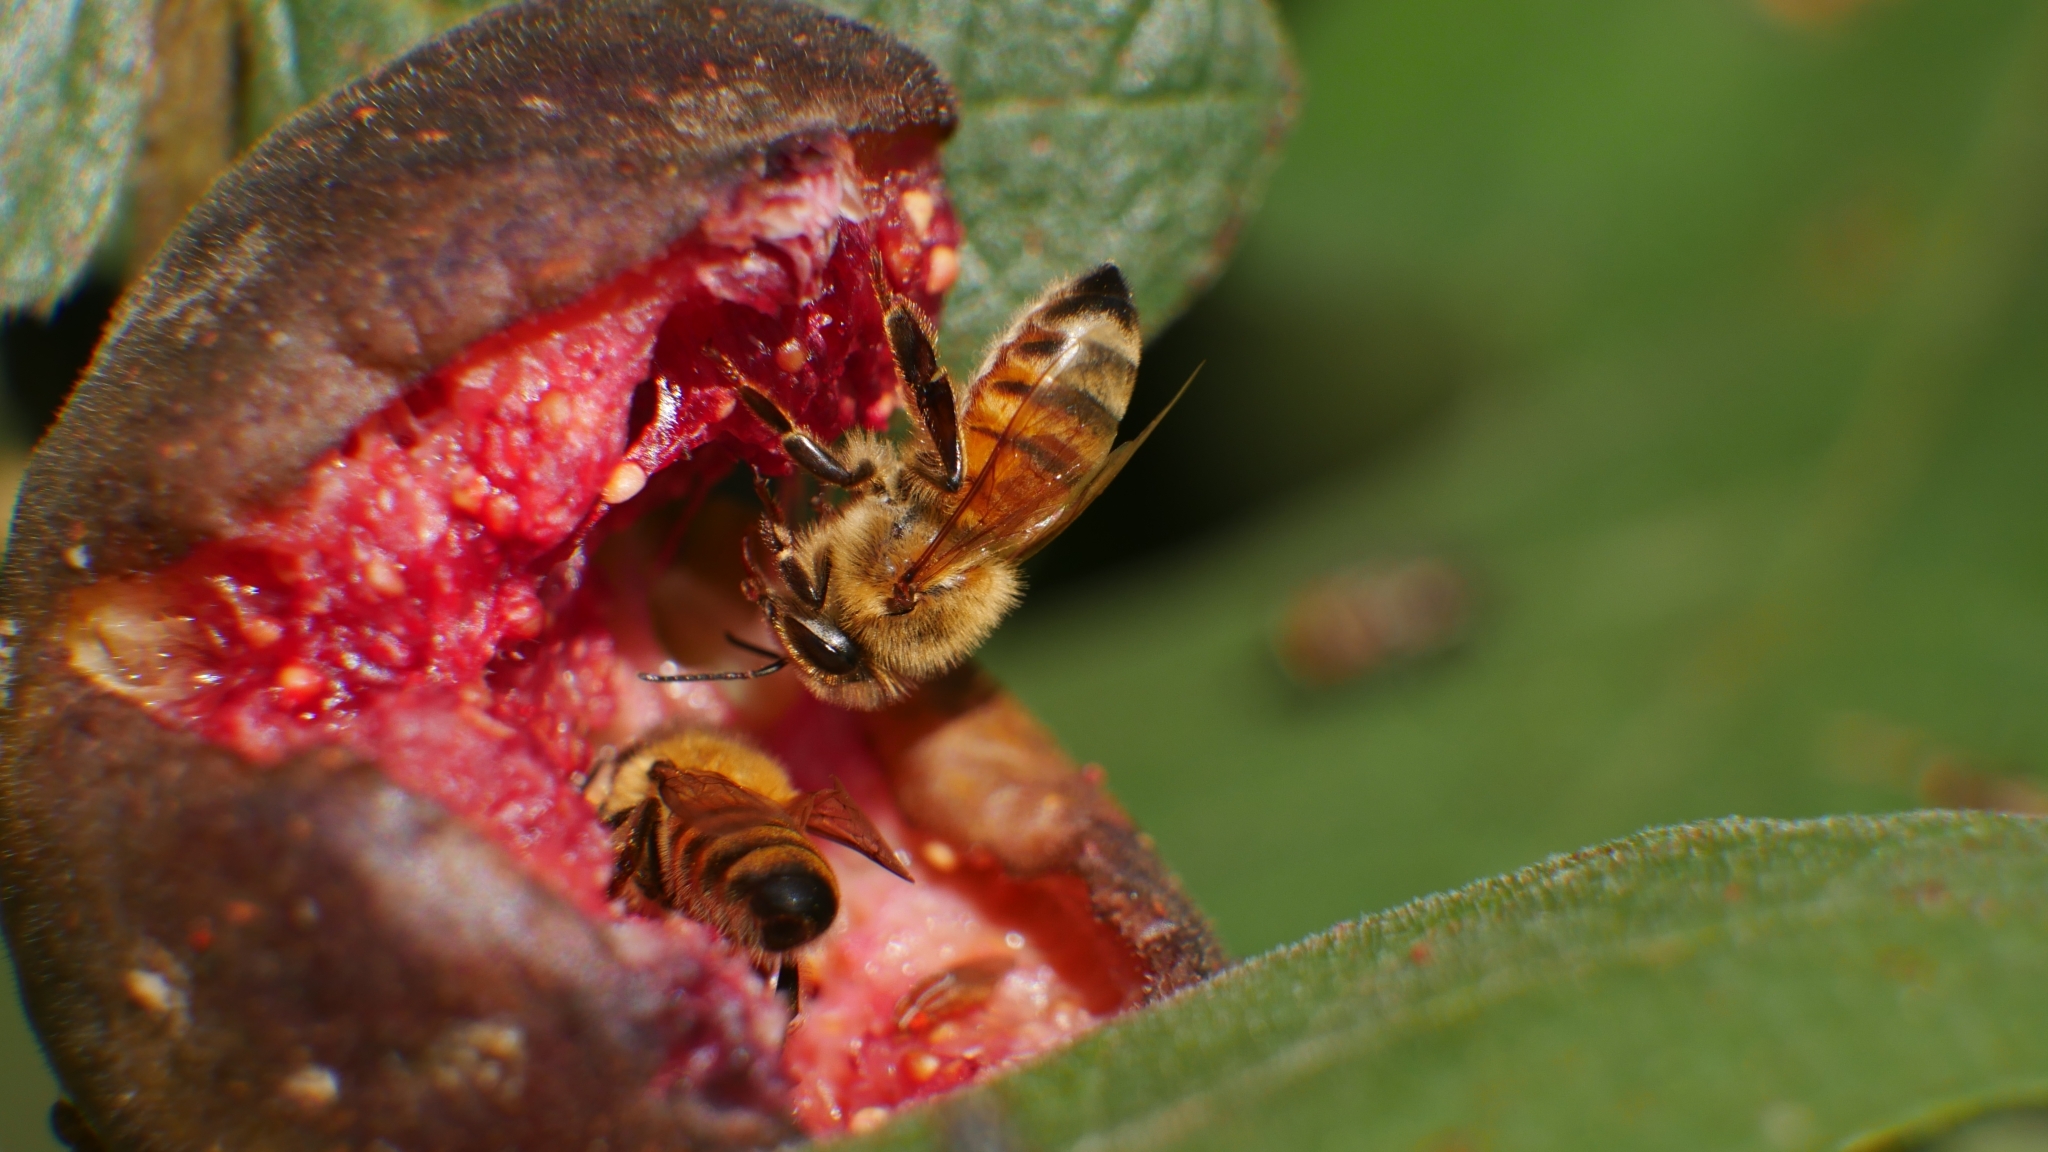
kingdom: Animalia
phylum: Arthropoda
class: Insecta
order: Hymenoptera
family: Apidae
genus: Apis
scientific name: Apis mellifera
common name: Honey bee
